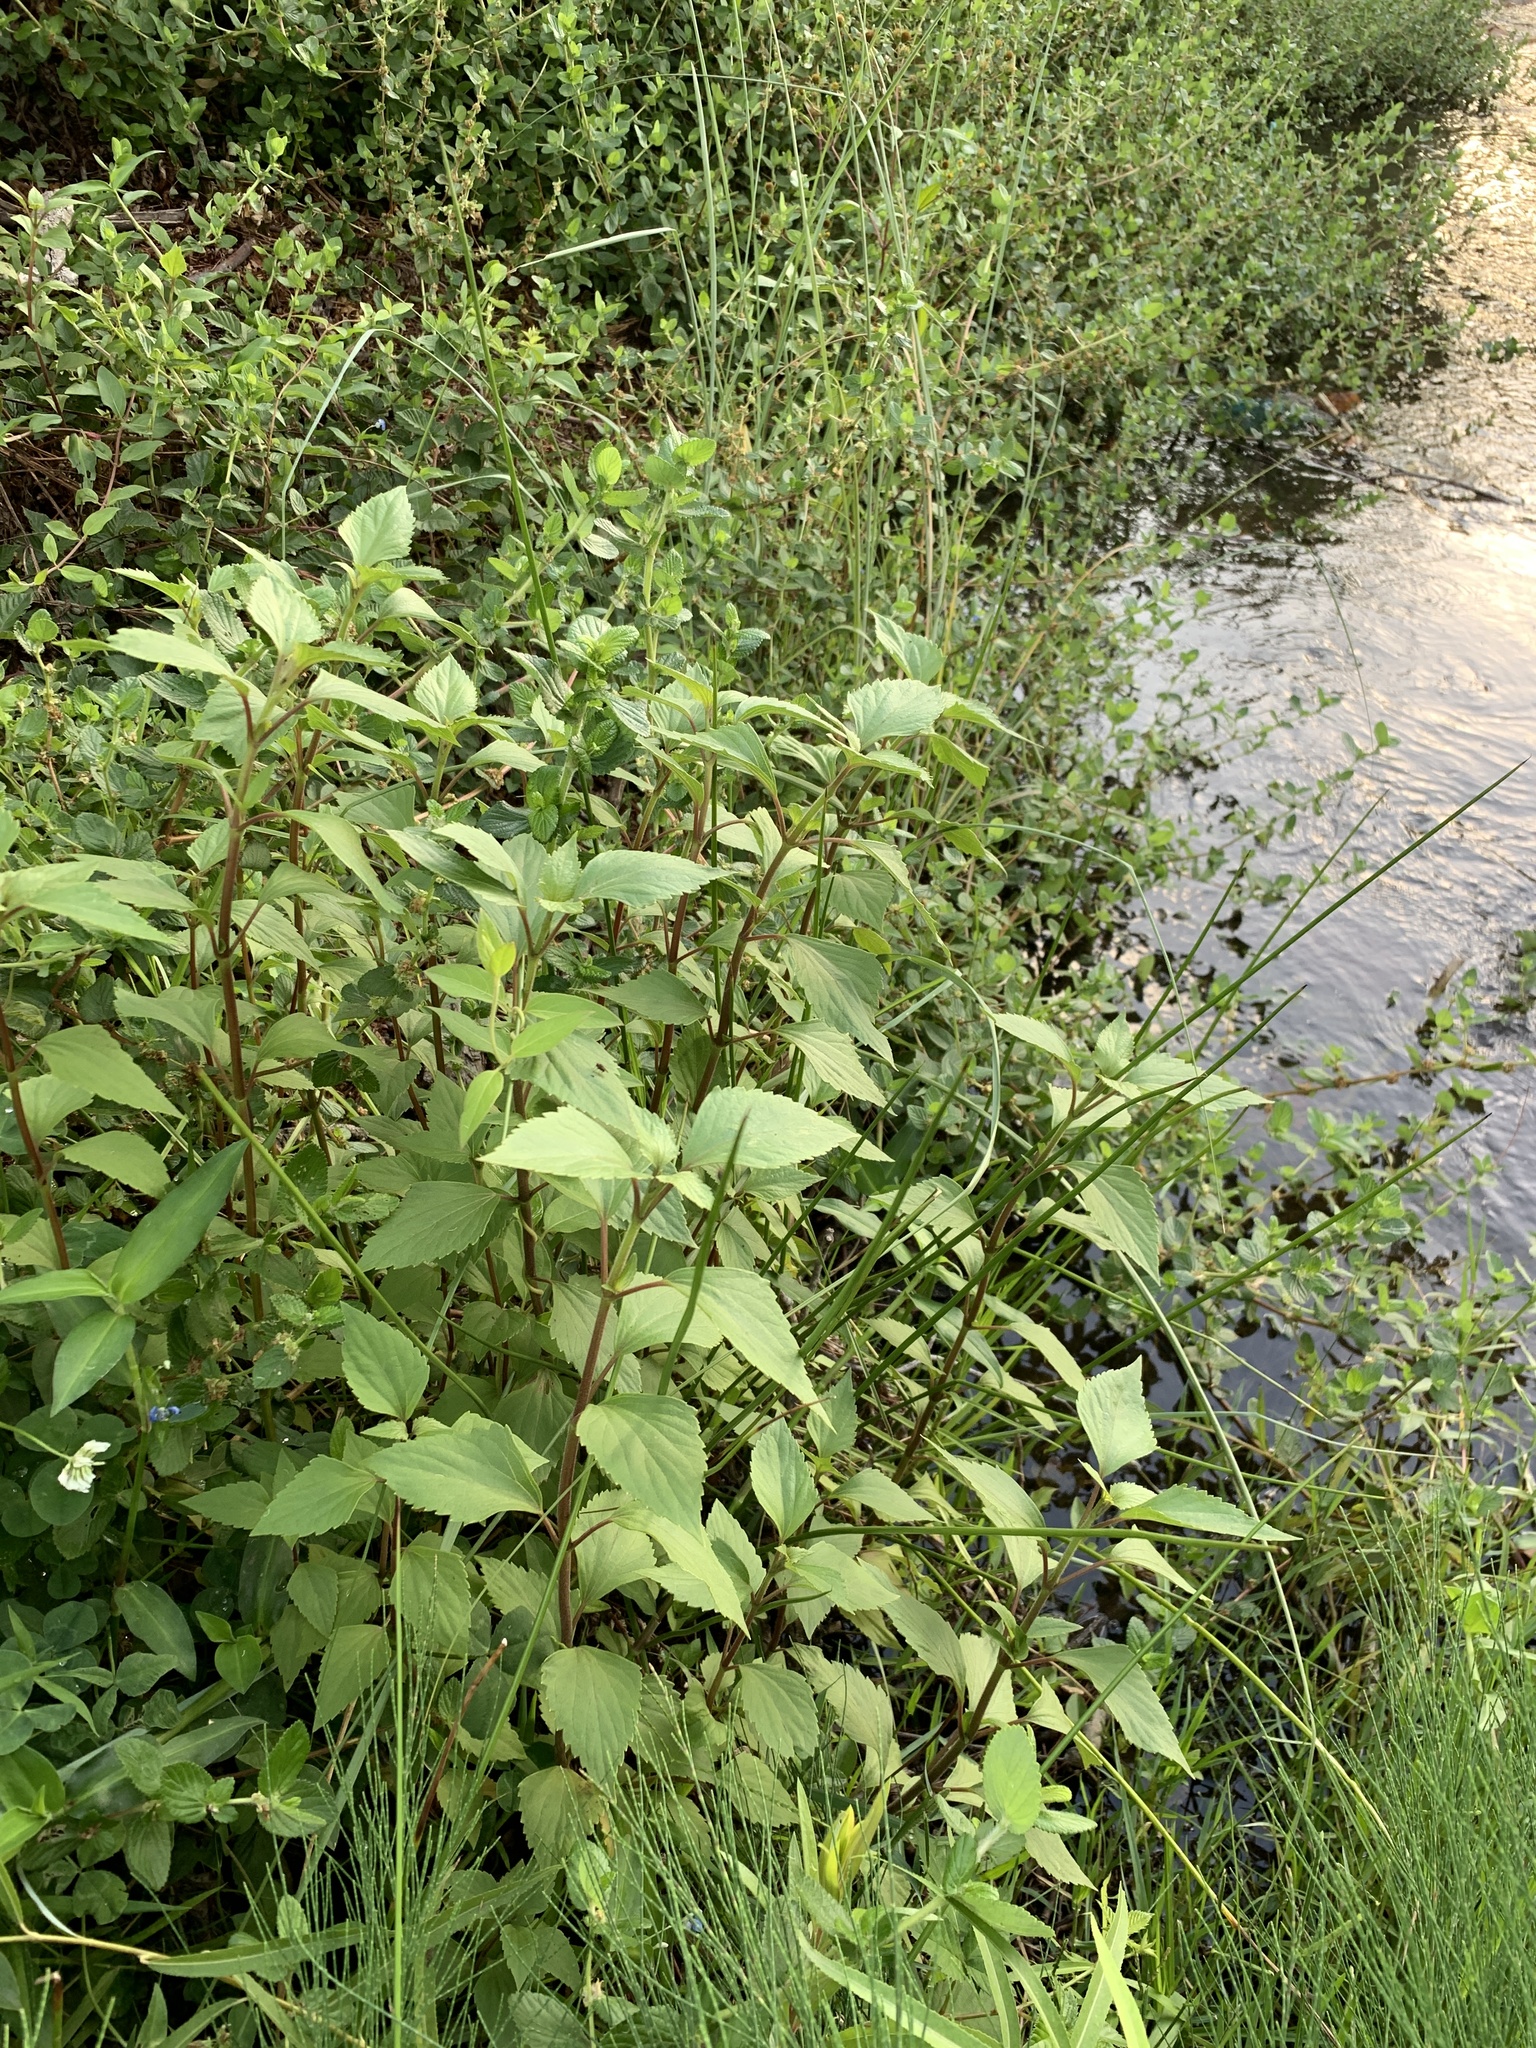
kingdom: Plantae
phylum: Tracheophyta
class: Magnoliopsida
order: Asterales
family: Asteraceae
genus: Ageratina
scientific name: Ageratina adenophora
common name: Sticky snakeroot
